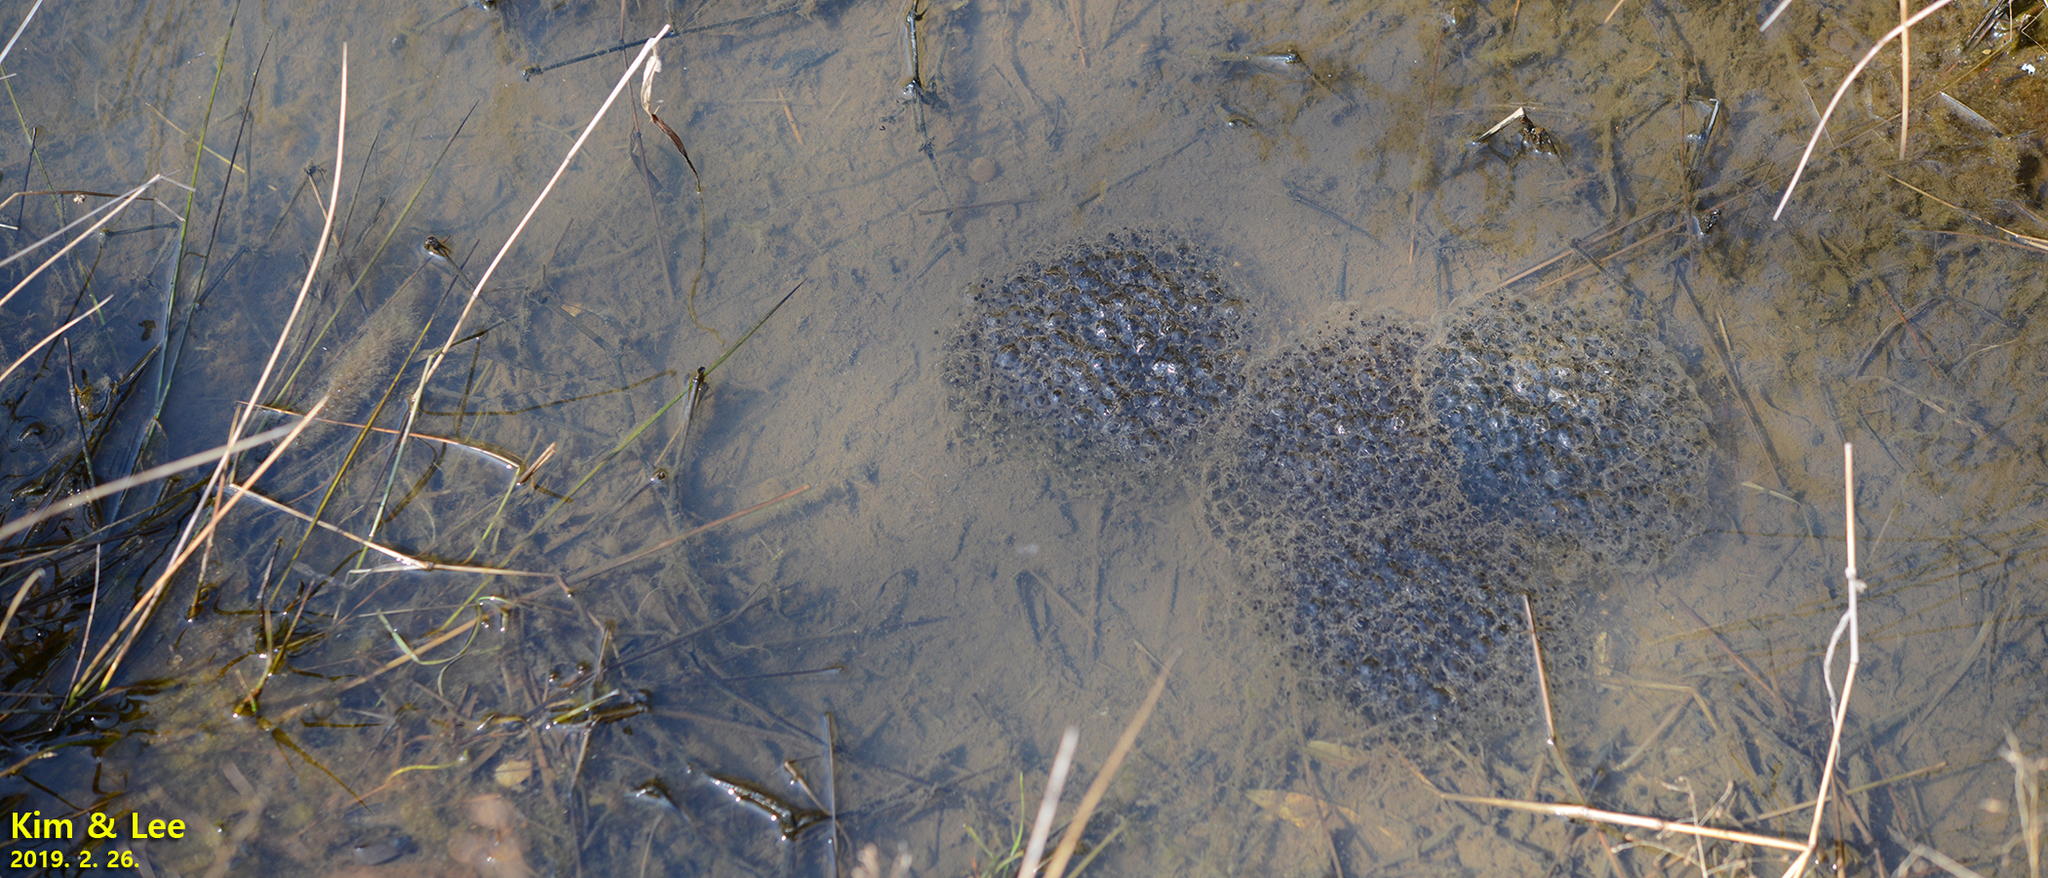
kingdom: Animalia
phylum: Chordata
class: Amphibia
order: Anura
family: Ranidae
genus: Rana
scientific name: Rana uenoi
